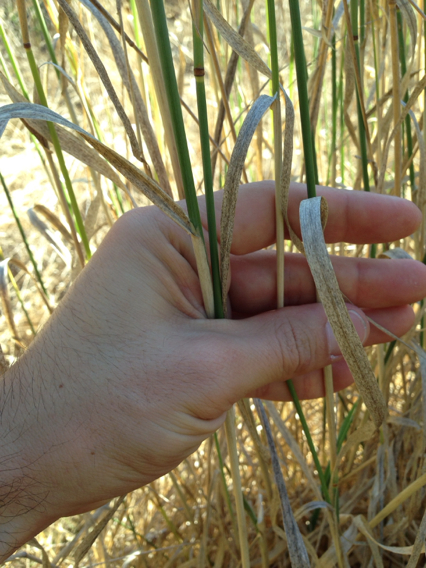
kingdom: Plantae
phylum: Tracheophyta
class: Liliopsida
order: Poales
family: Poaceae
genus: Phalaris
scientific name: Phalaris aquatica
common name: Bulbous canary-grass
